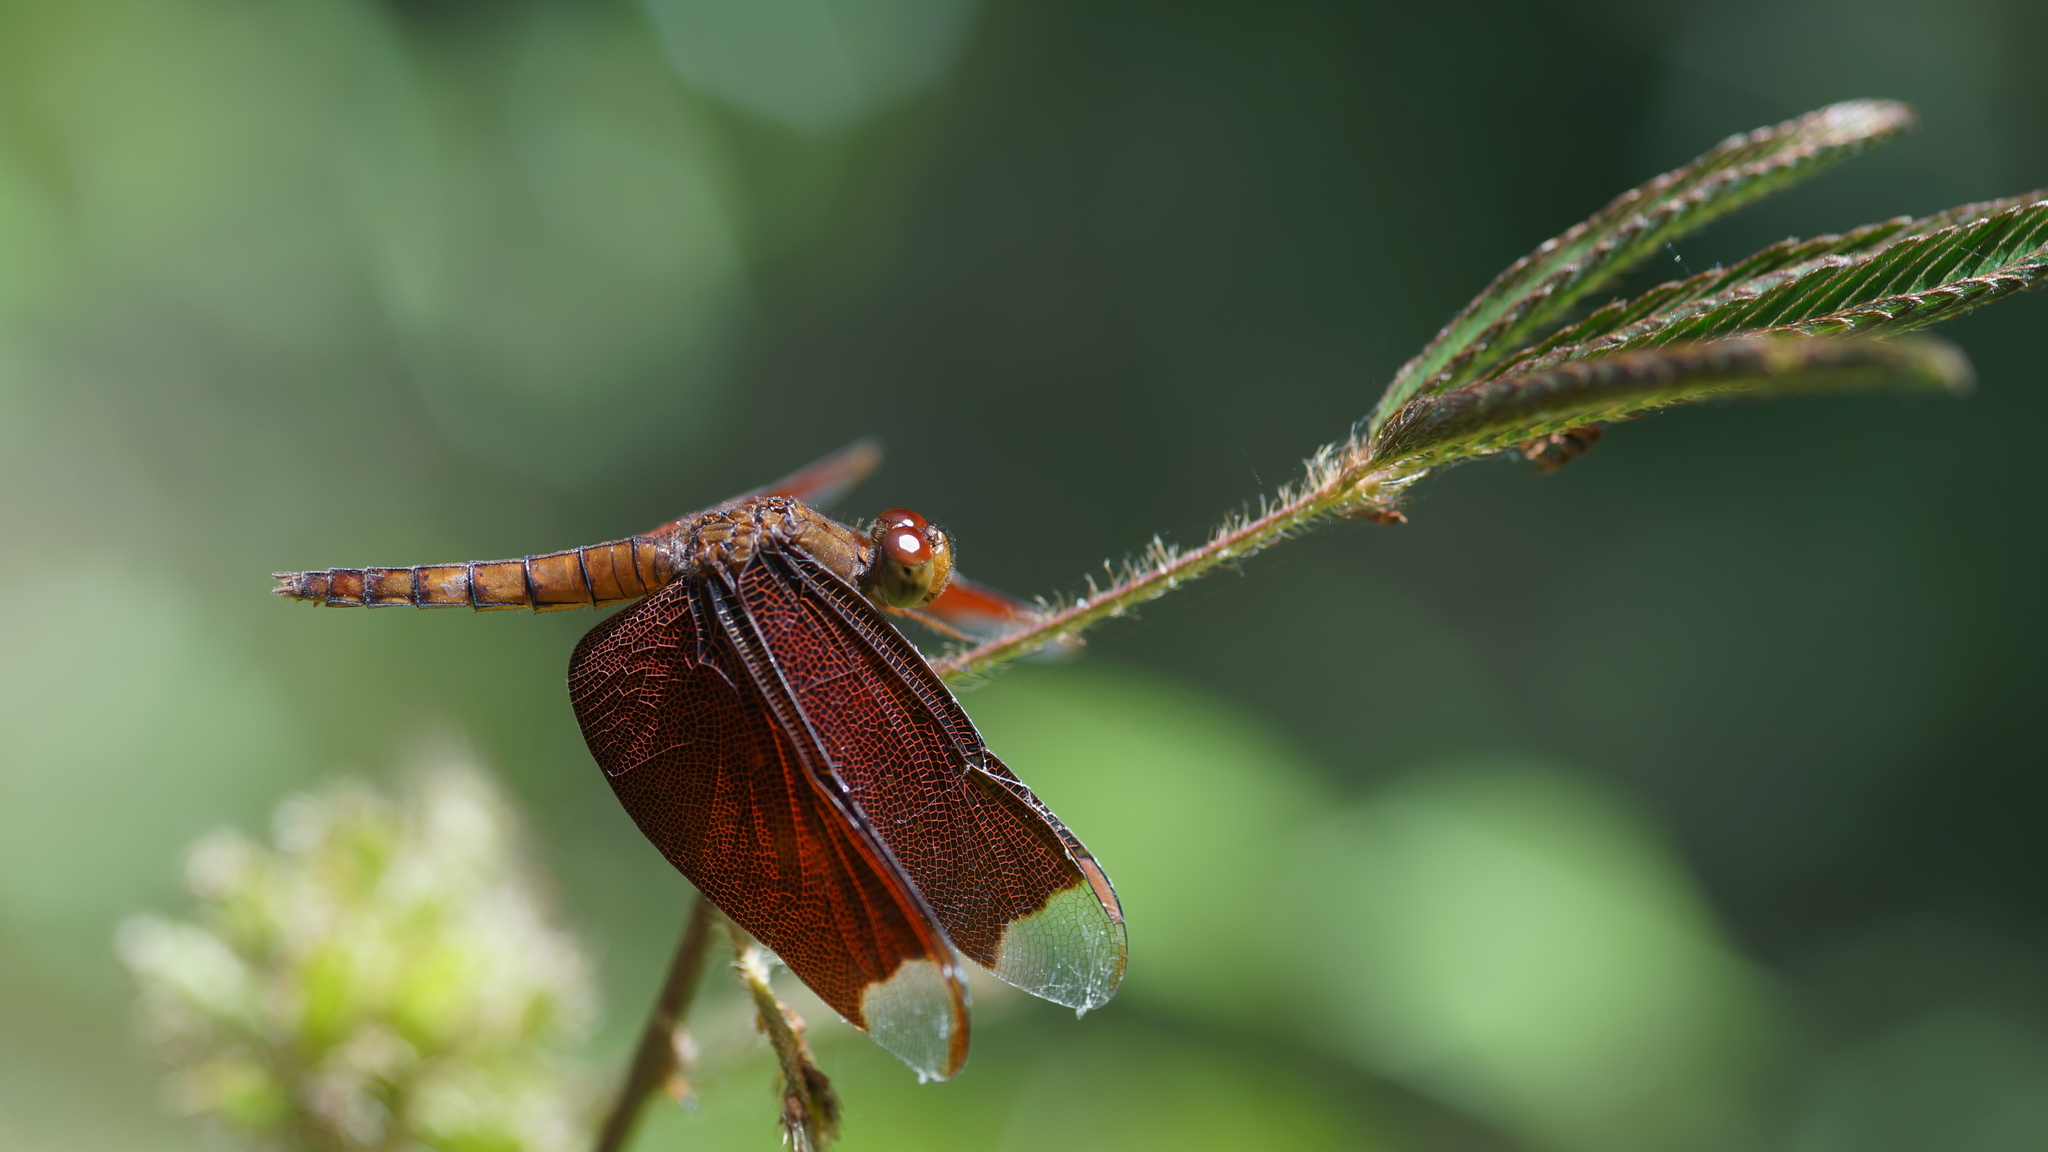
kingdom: Animalia
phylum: Arthropoda
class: Insecta
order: Odonata
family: Libellulidae
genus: Neurothemis
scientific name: Neurothemis fulvia
